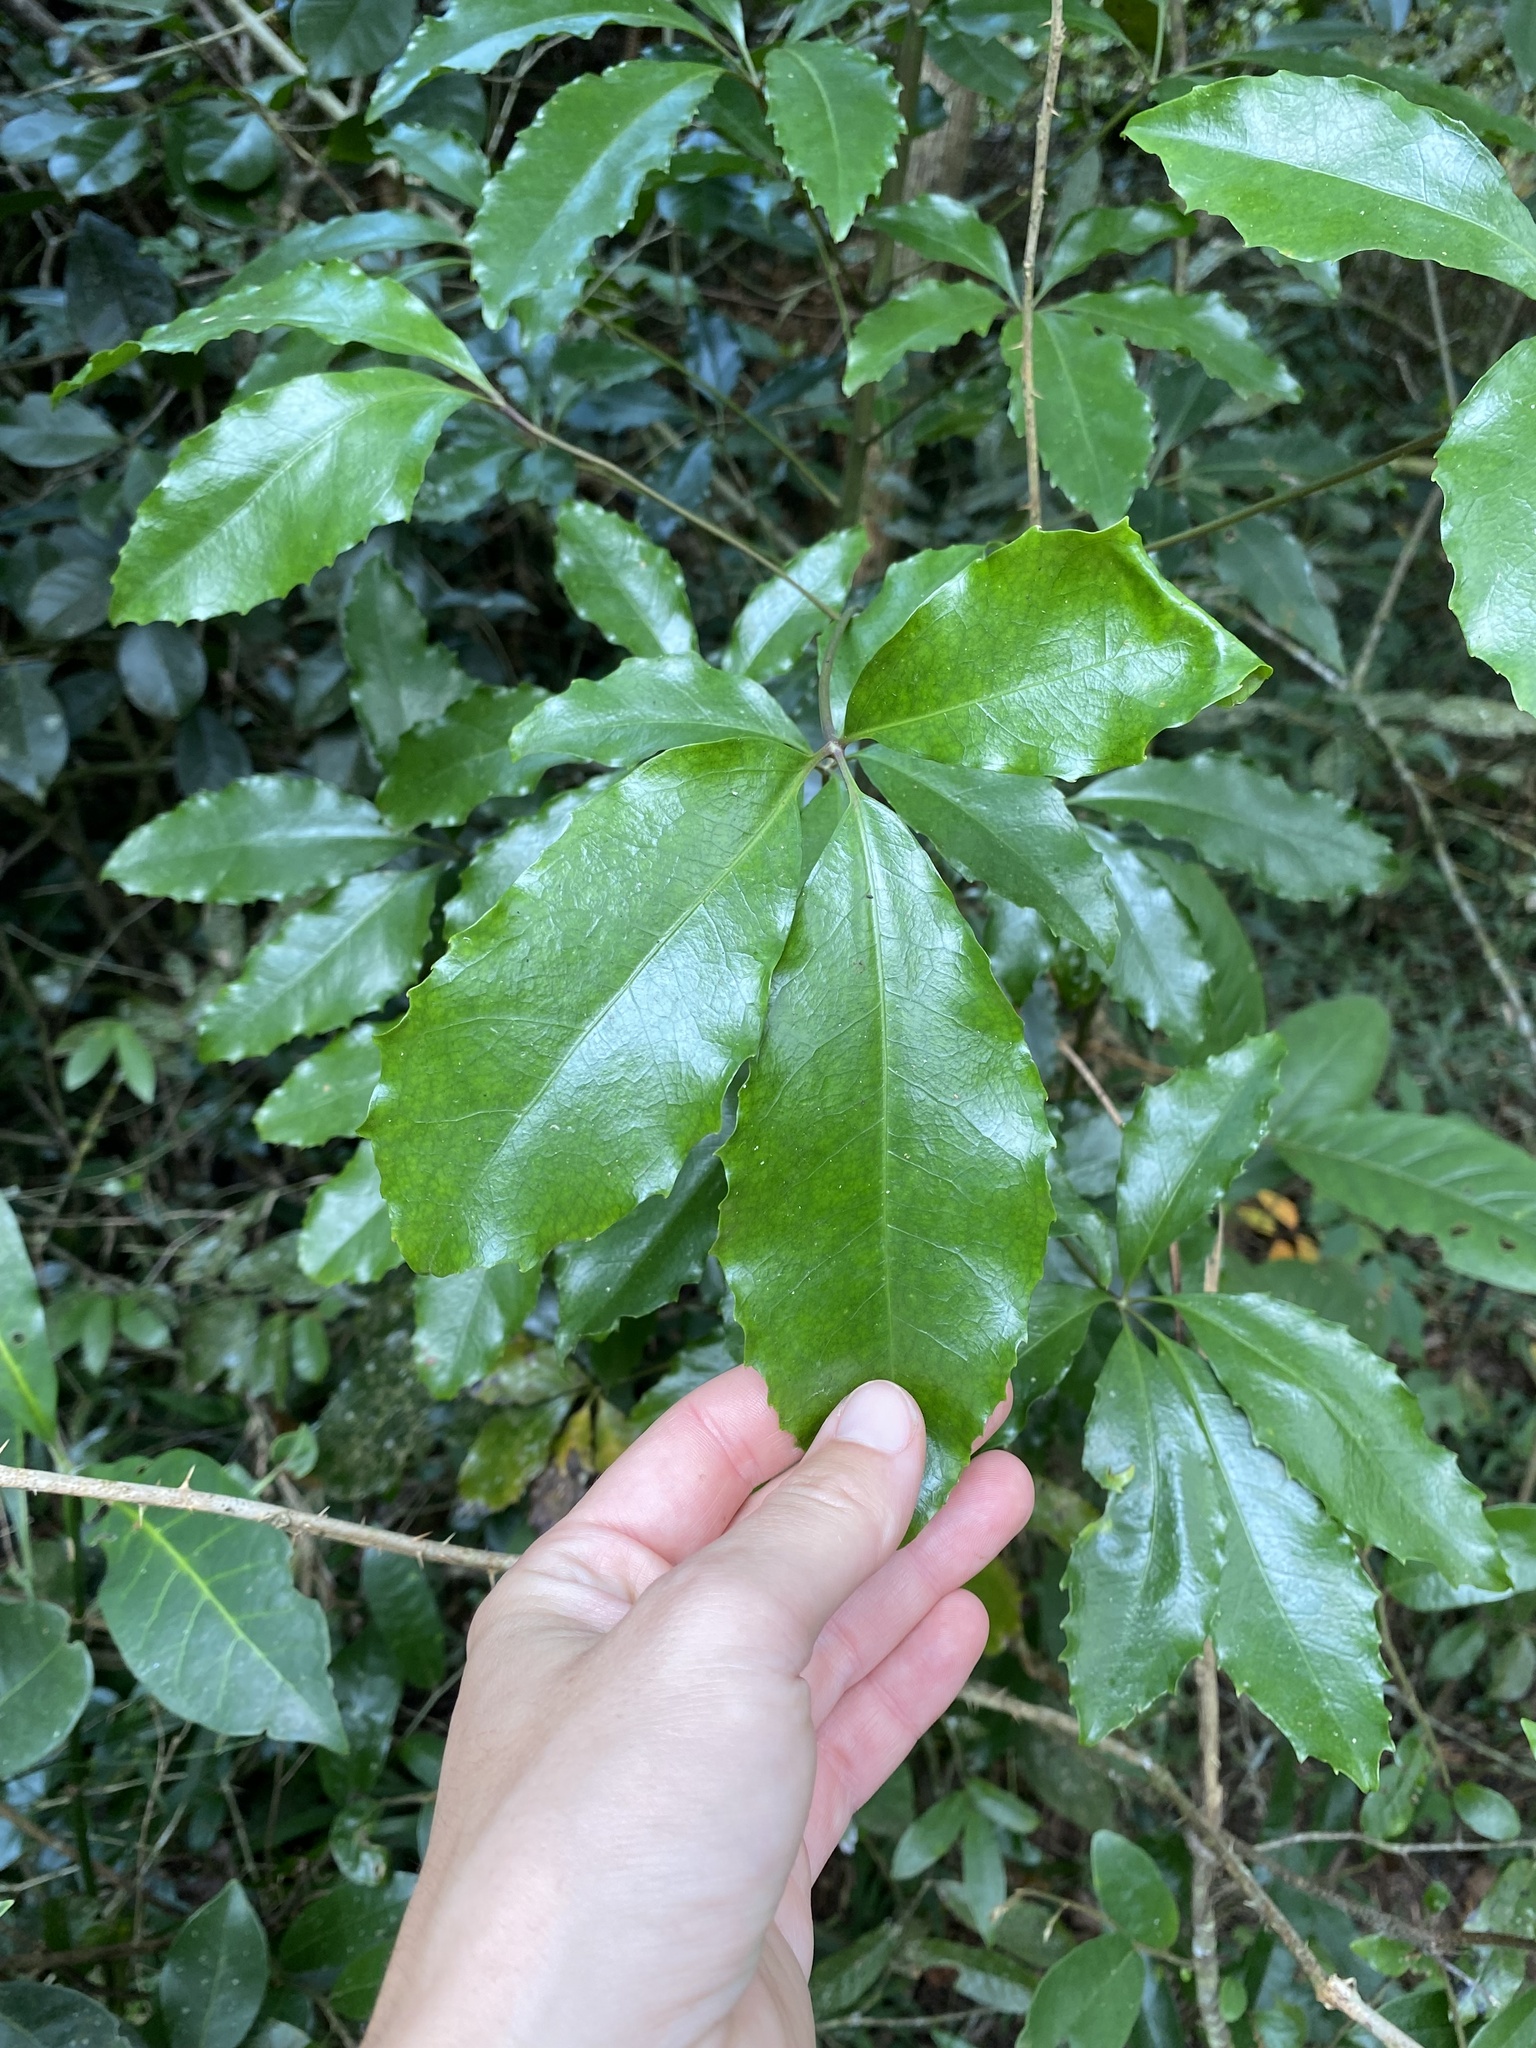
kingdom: Plantae
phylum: Tracheophyta
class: Magnoliopsida
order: Apiales
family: Araliaceae
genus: Neocussonia
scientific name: Neocussonia umbellifera
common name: False cabbage tree
